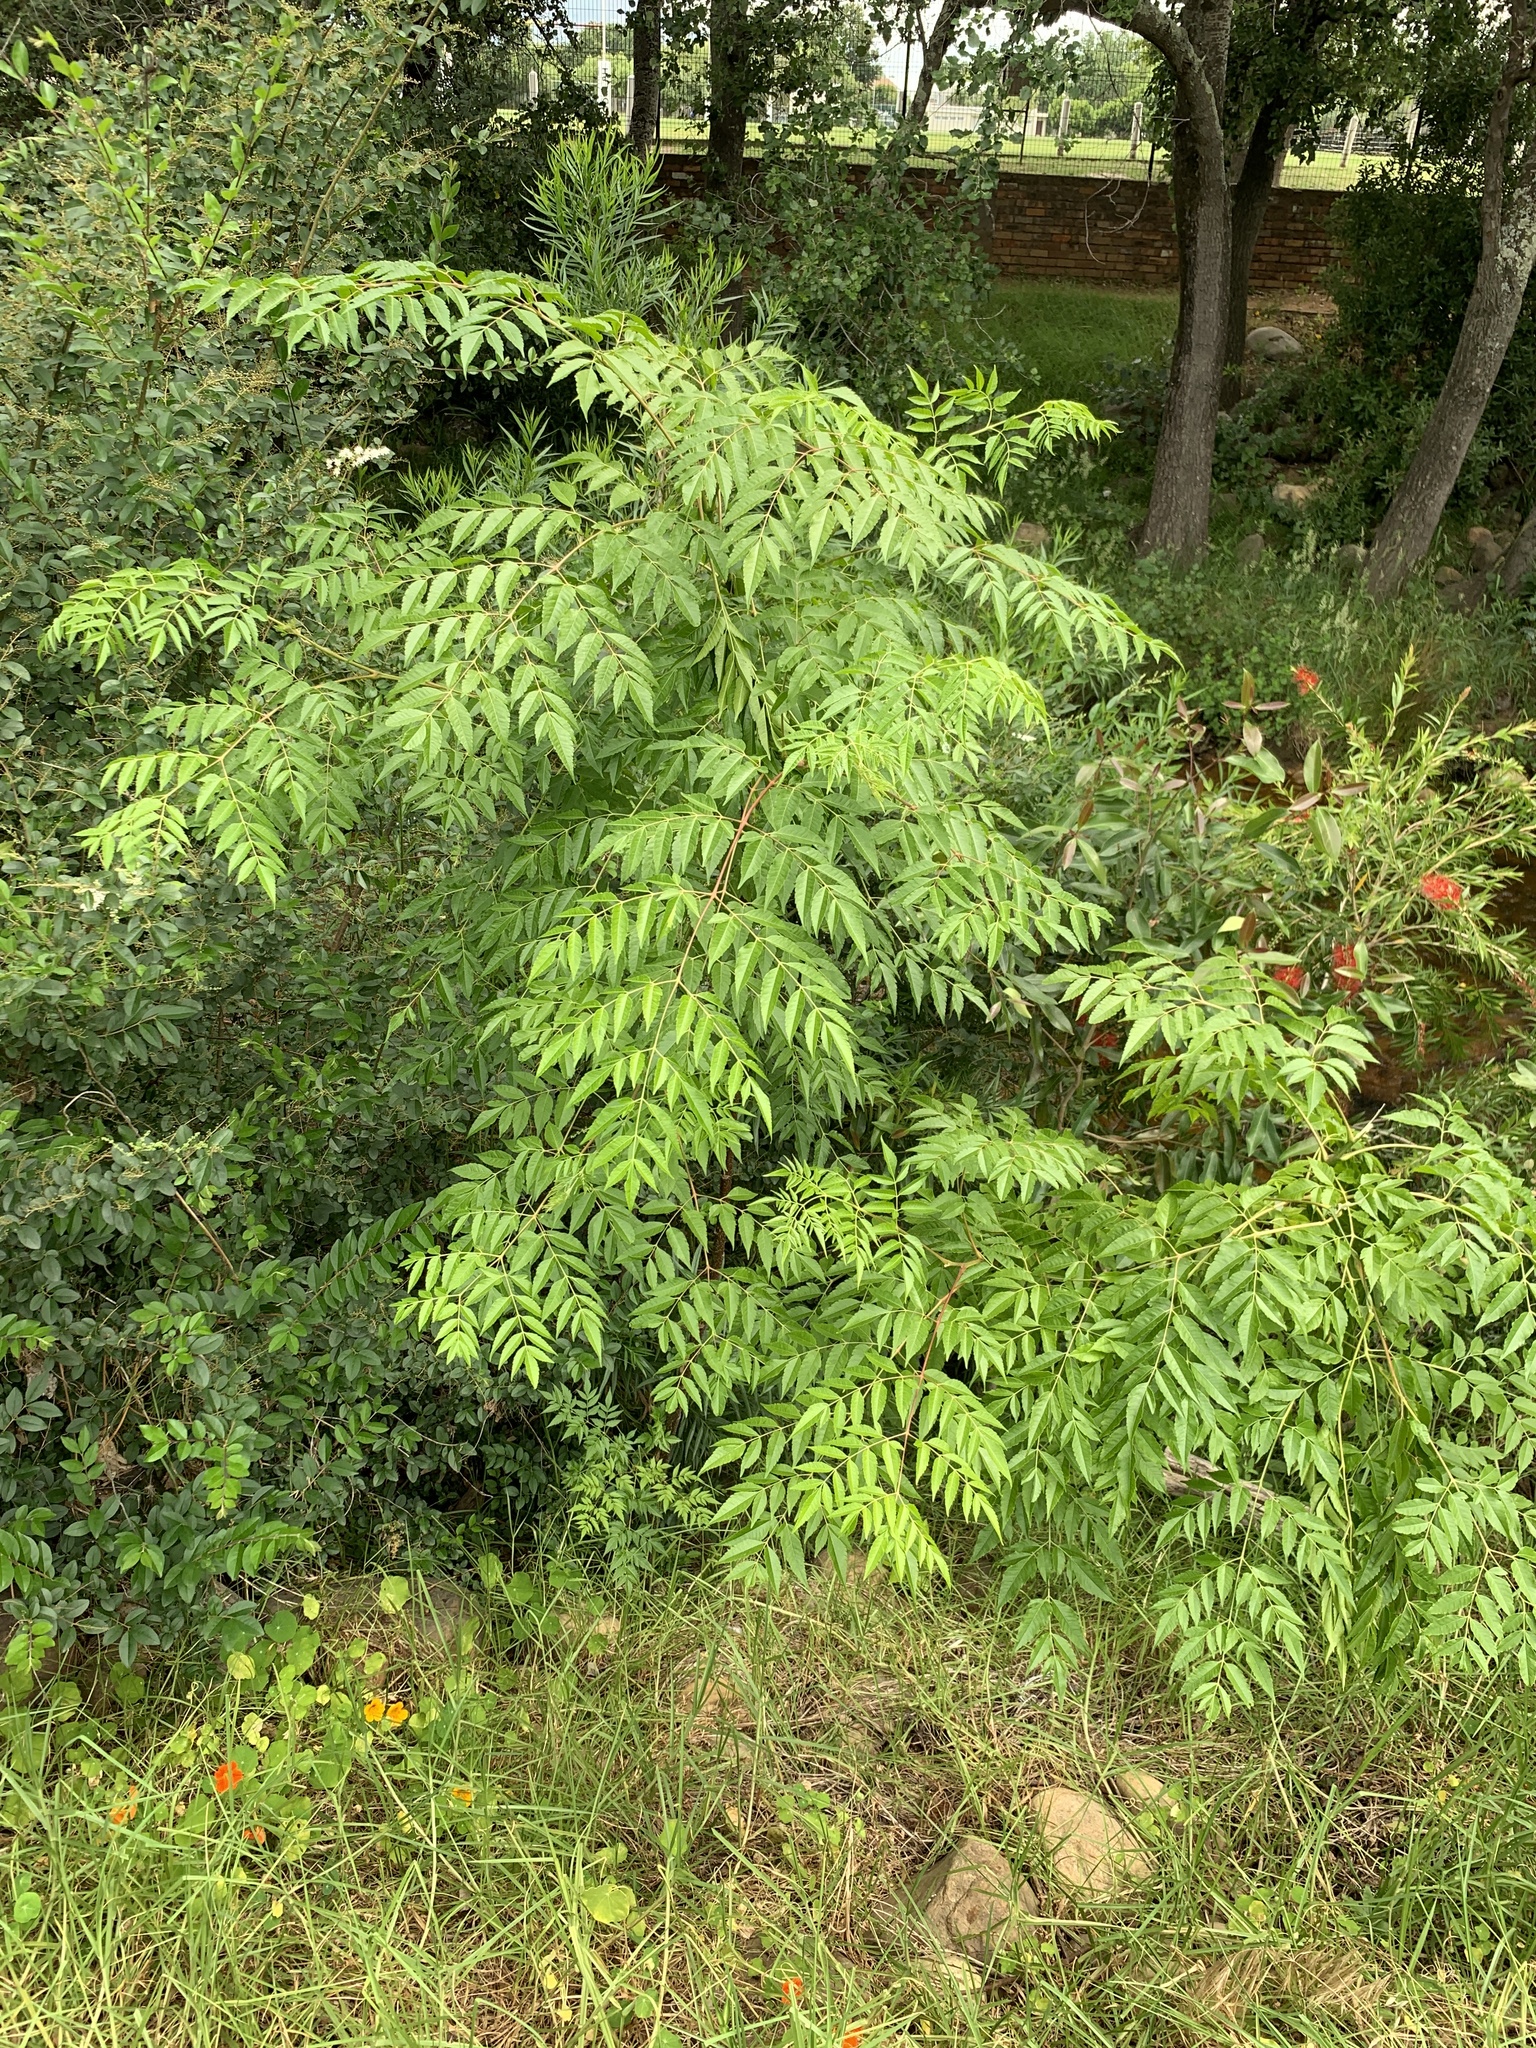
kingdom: Plantae
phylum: Tracheophyta
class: Magnoliopsida
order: Sapindales
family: Meliaceae
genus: Melia
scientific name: Melia azedarach
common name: Chinaberrytree
